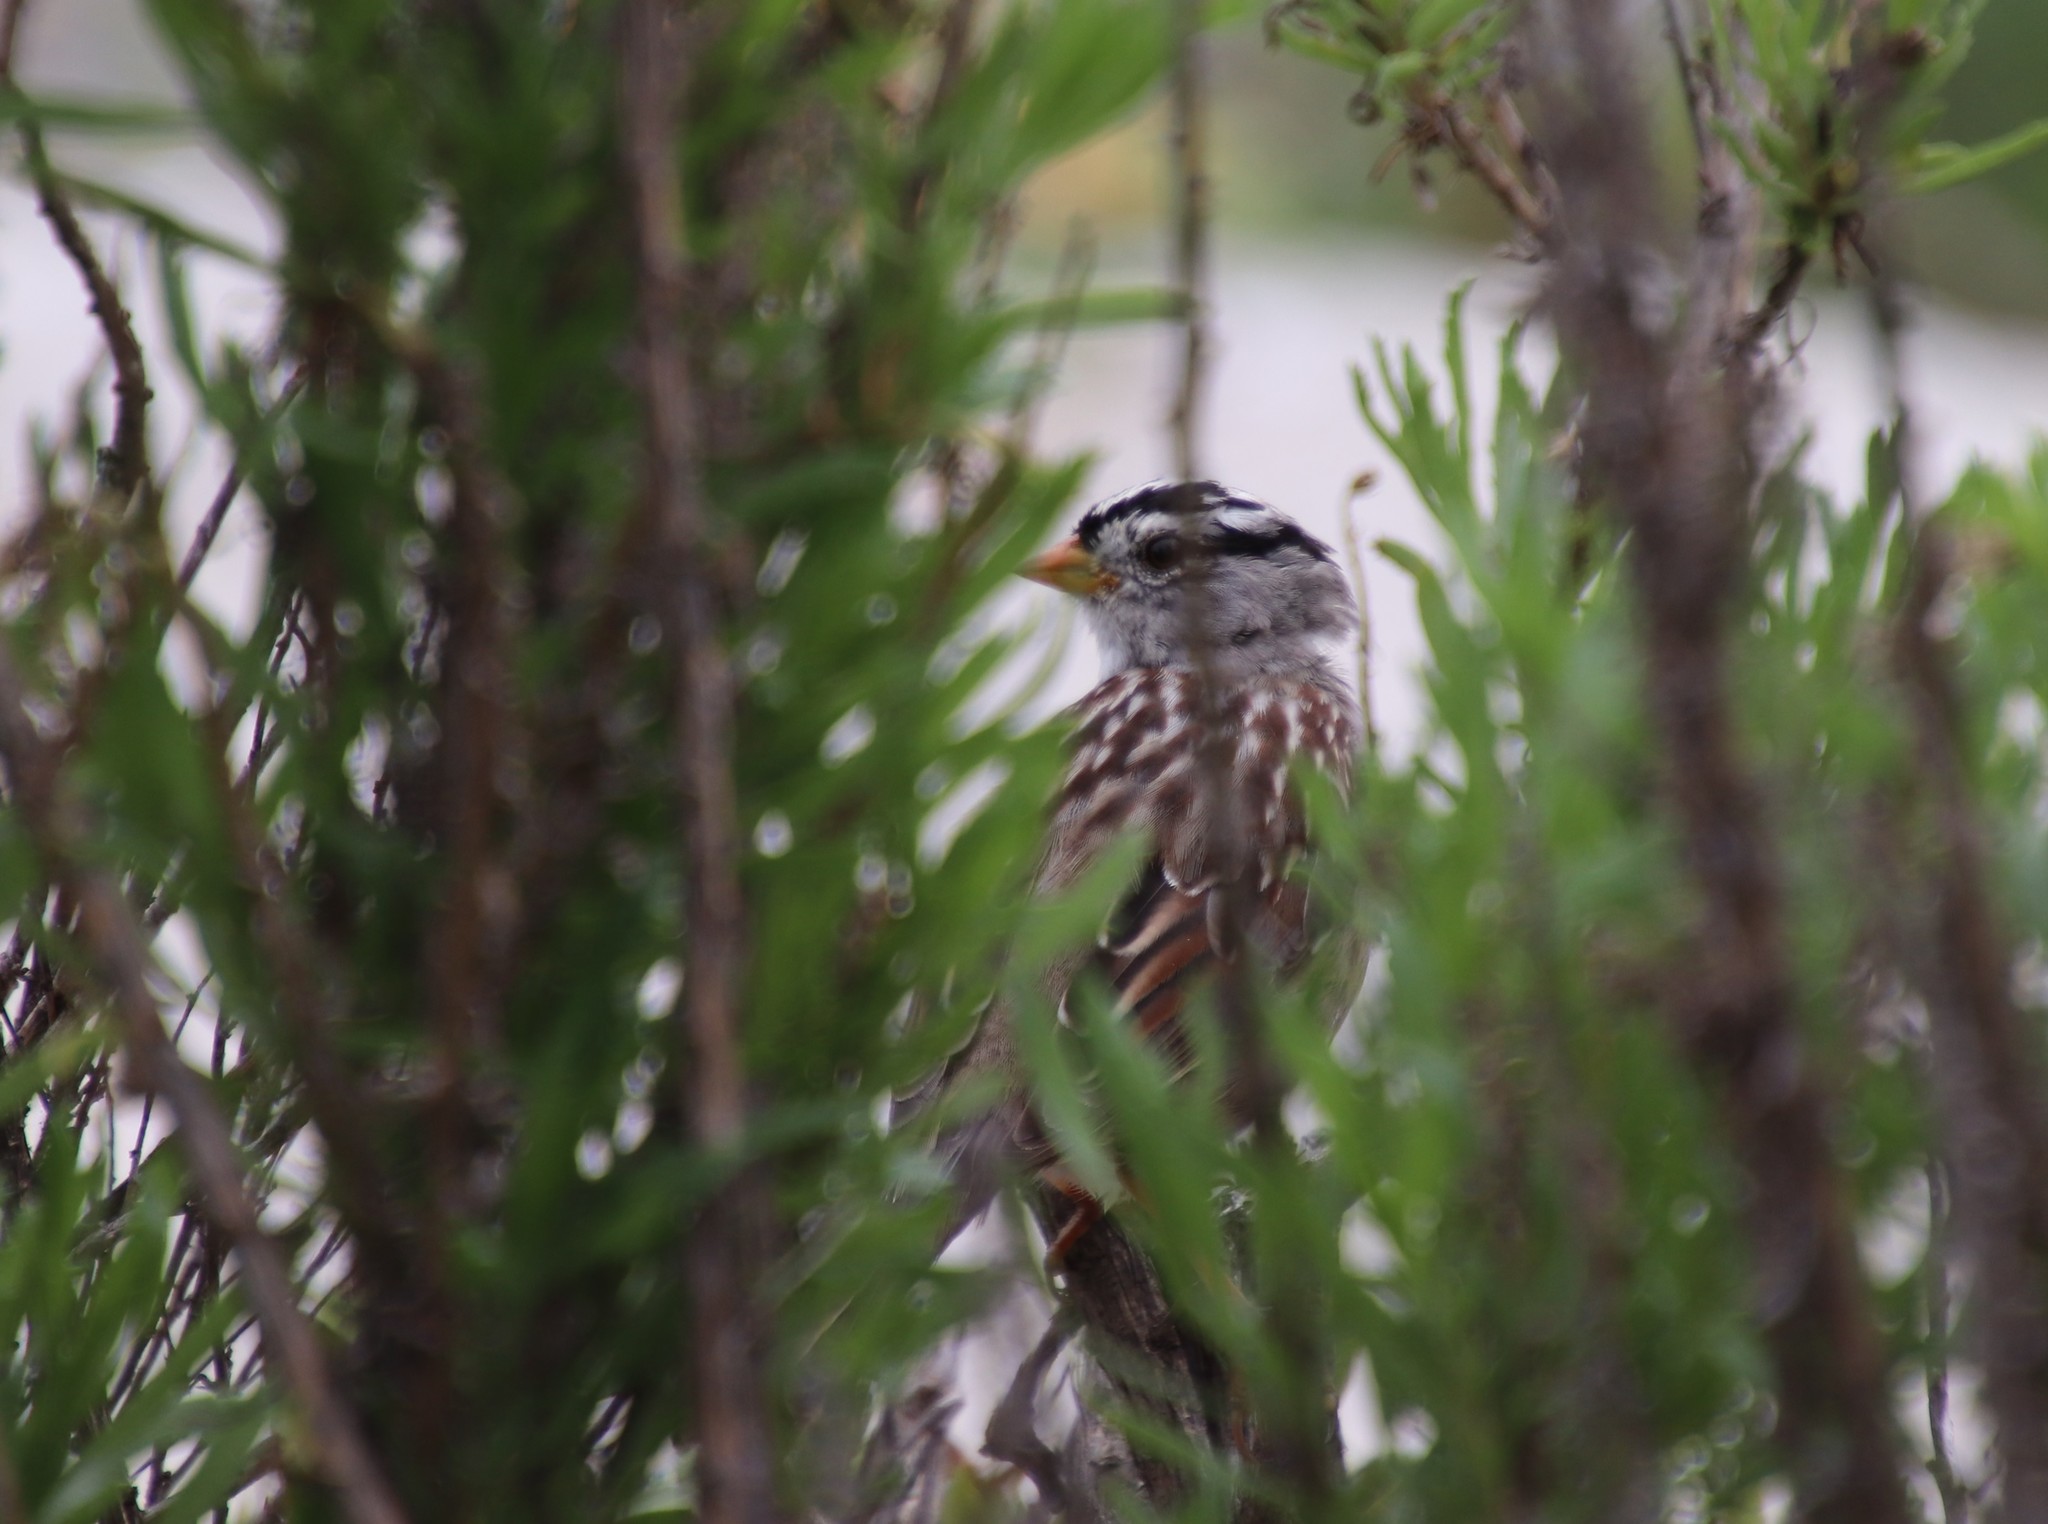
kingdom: Animalia
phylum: Chordata
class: Aves
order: Passeriformes
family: Passerellidae
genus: Zonotrichia
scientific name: Zonotrichia leucophrys
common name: White-crowned sparrow
